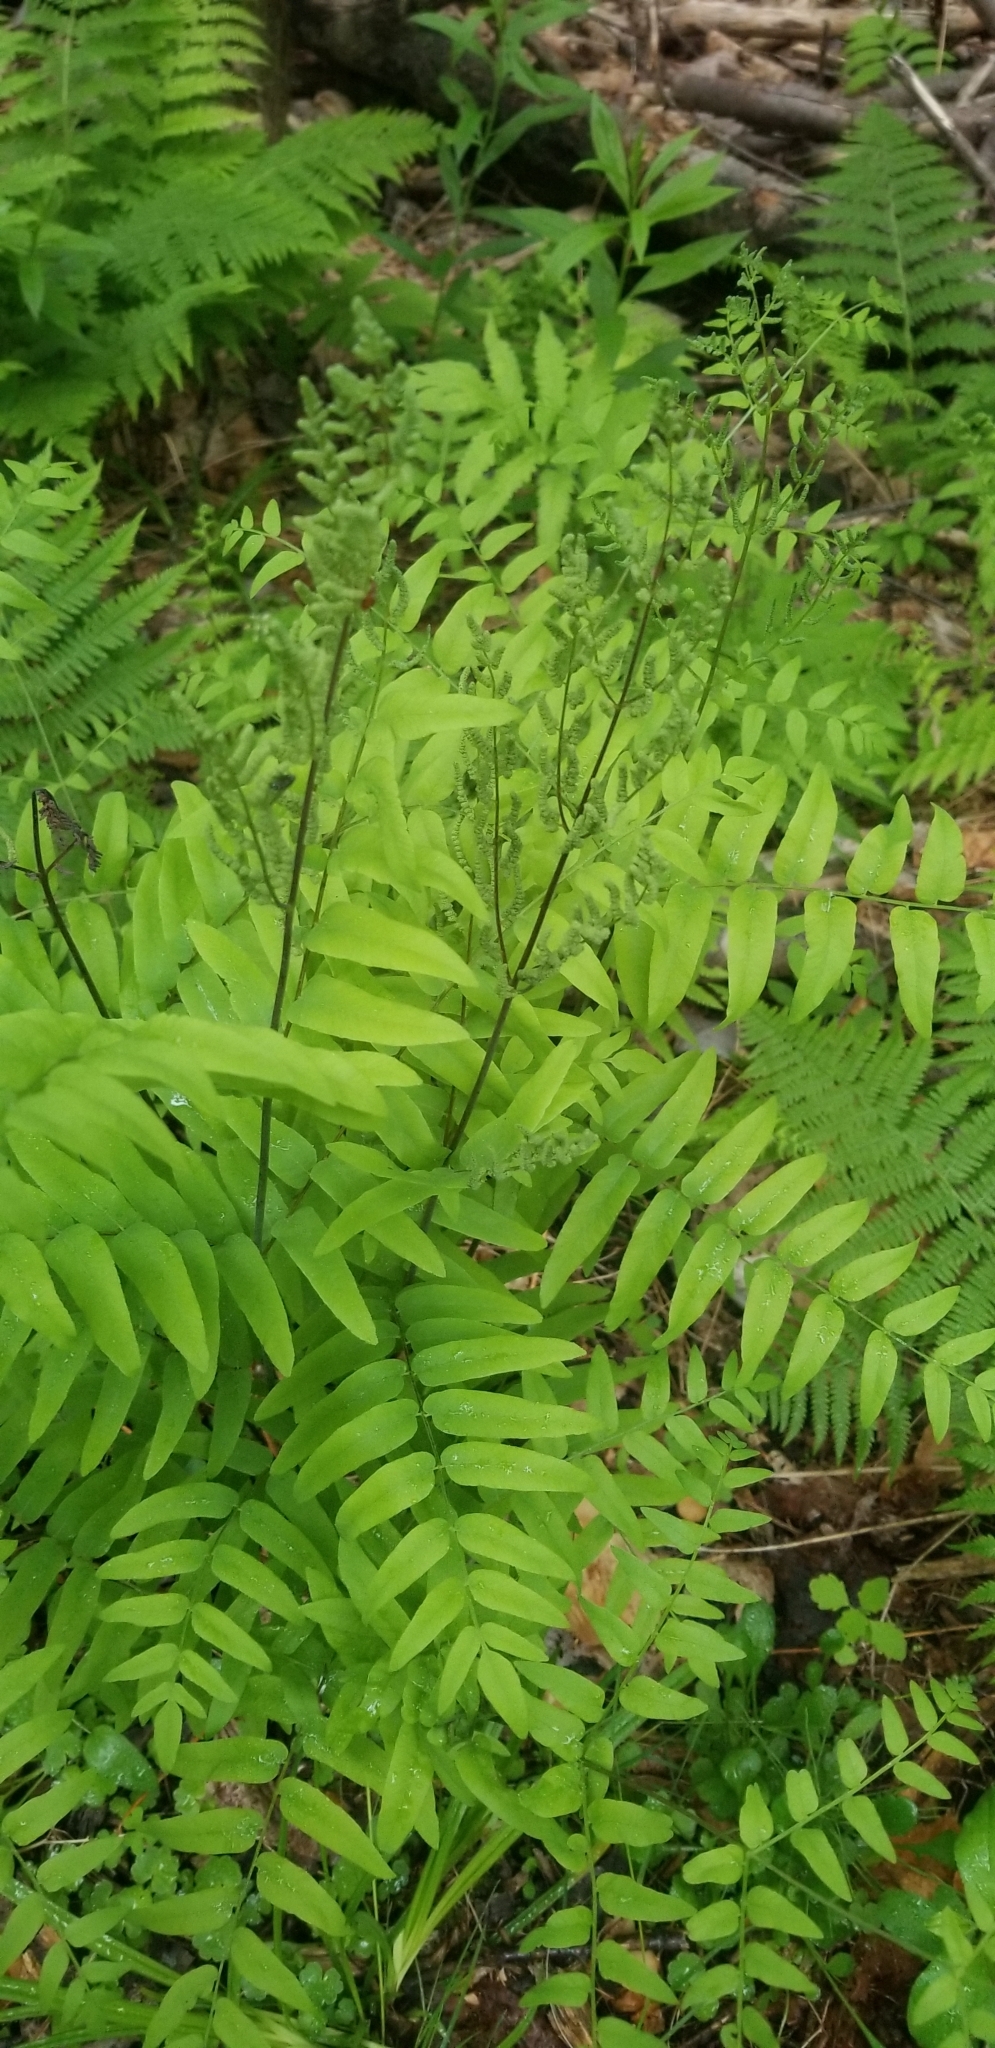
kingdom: Plantae
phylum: Tracheophyta
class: Polypodiopsida
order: Osmundales
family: Osmundaceae
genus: Osmunda
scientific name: Osmunda spectabilis
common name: American royal fern
